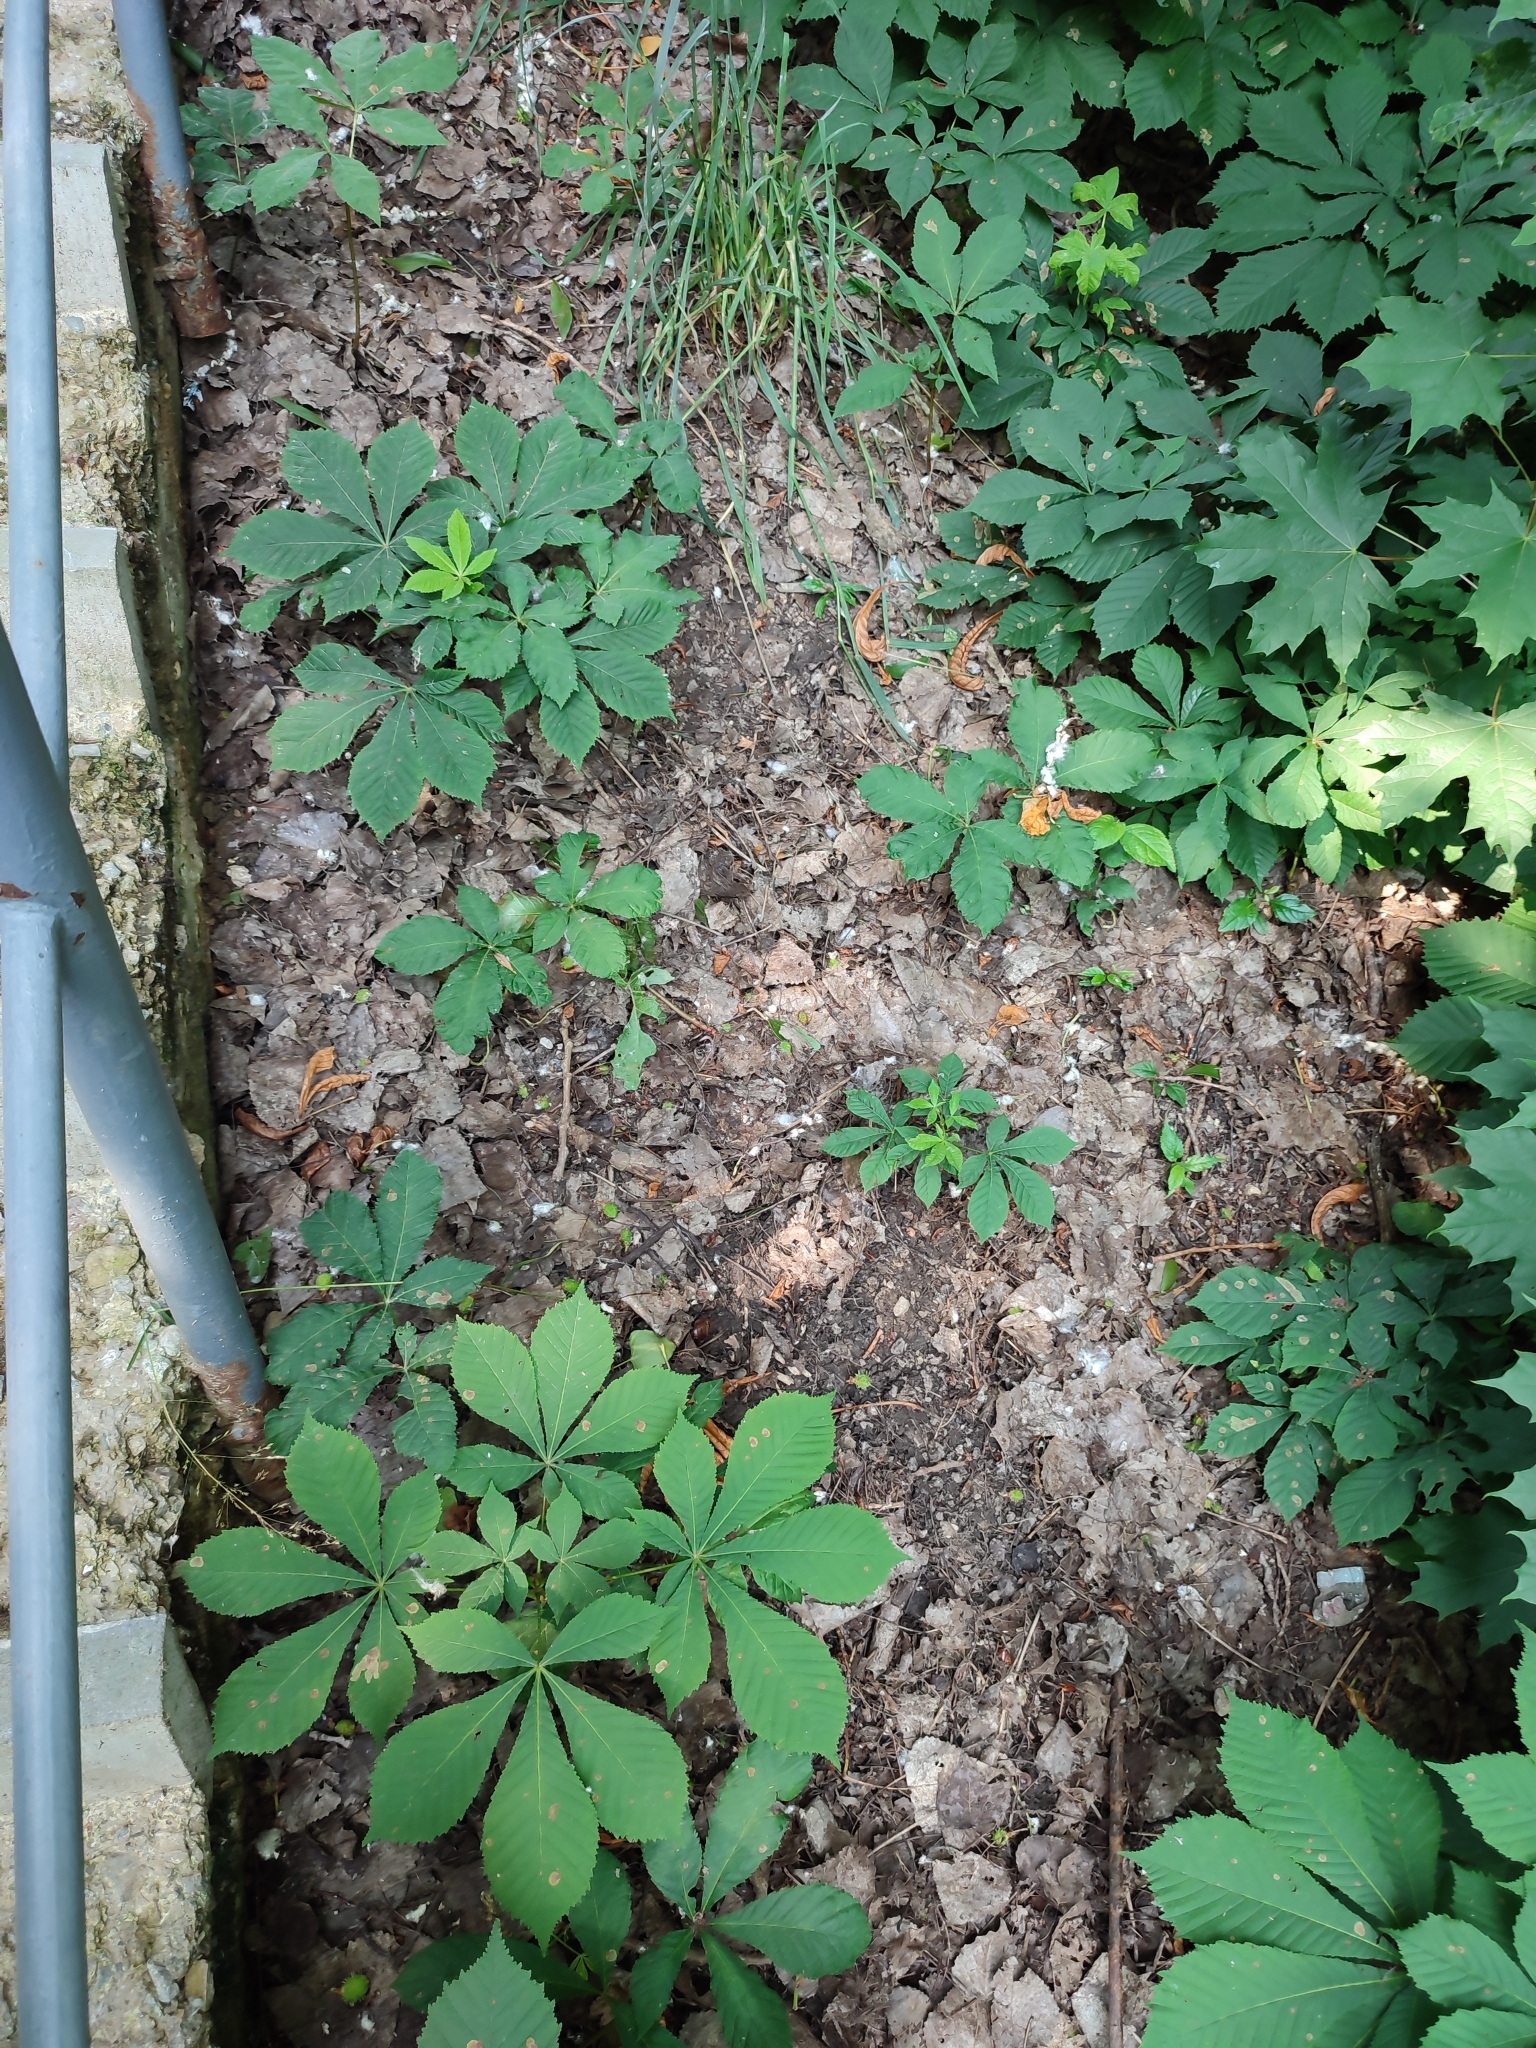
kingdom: Plantae
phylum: Tracheophyta
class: Magnoliopsida
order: Sapindales
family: Sapindaceae
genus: Aesculus
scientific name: Aesculus hippocastanum
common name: Horse-chestnut
